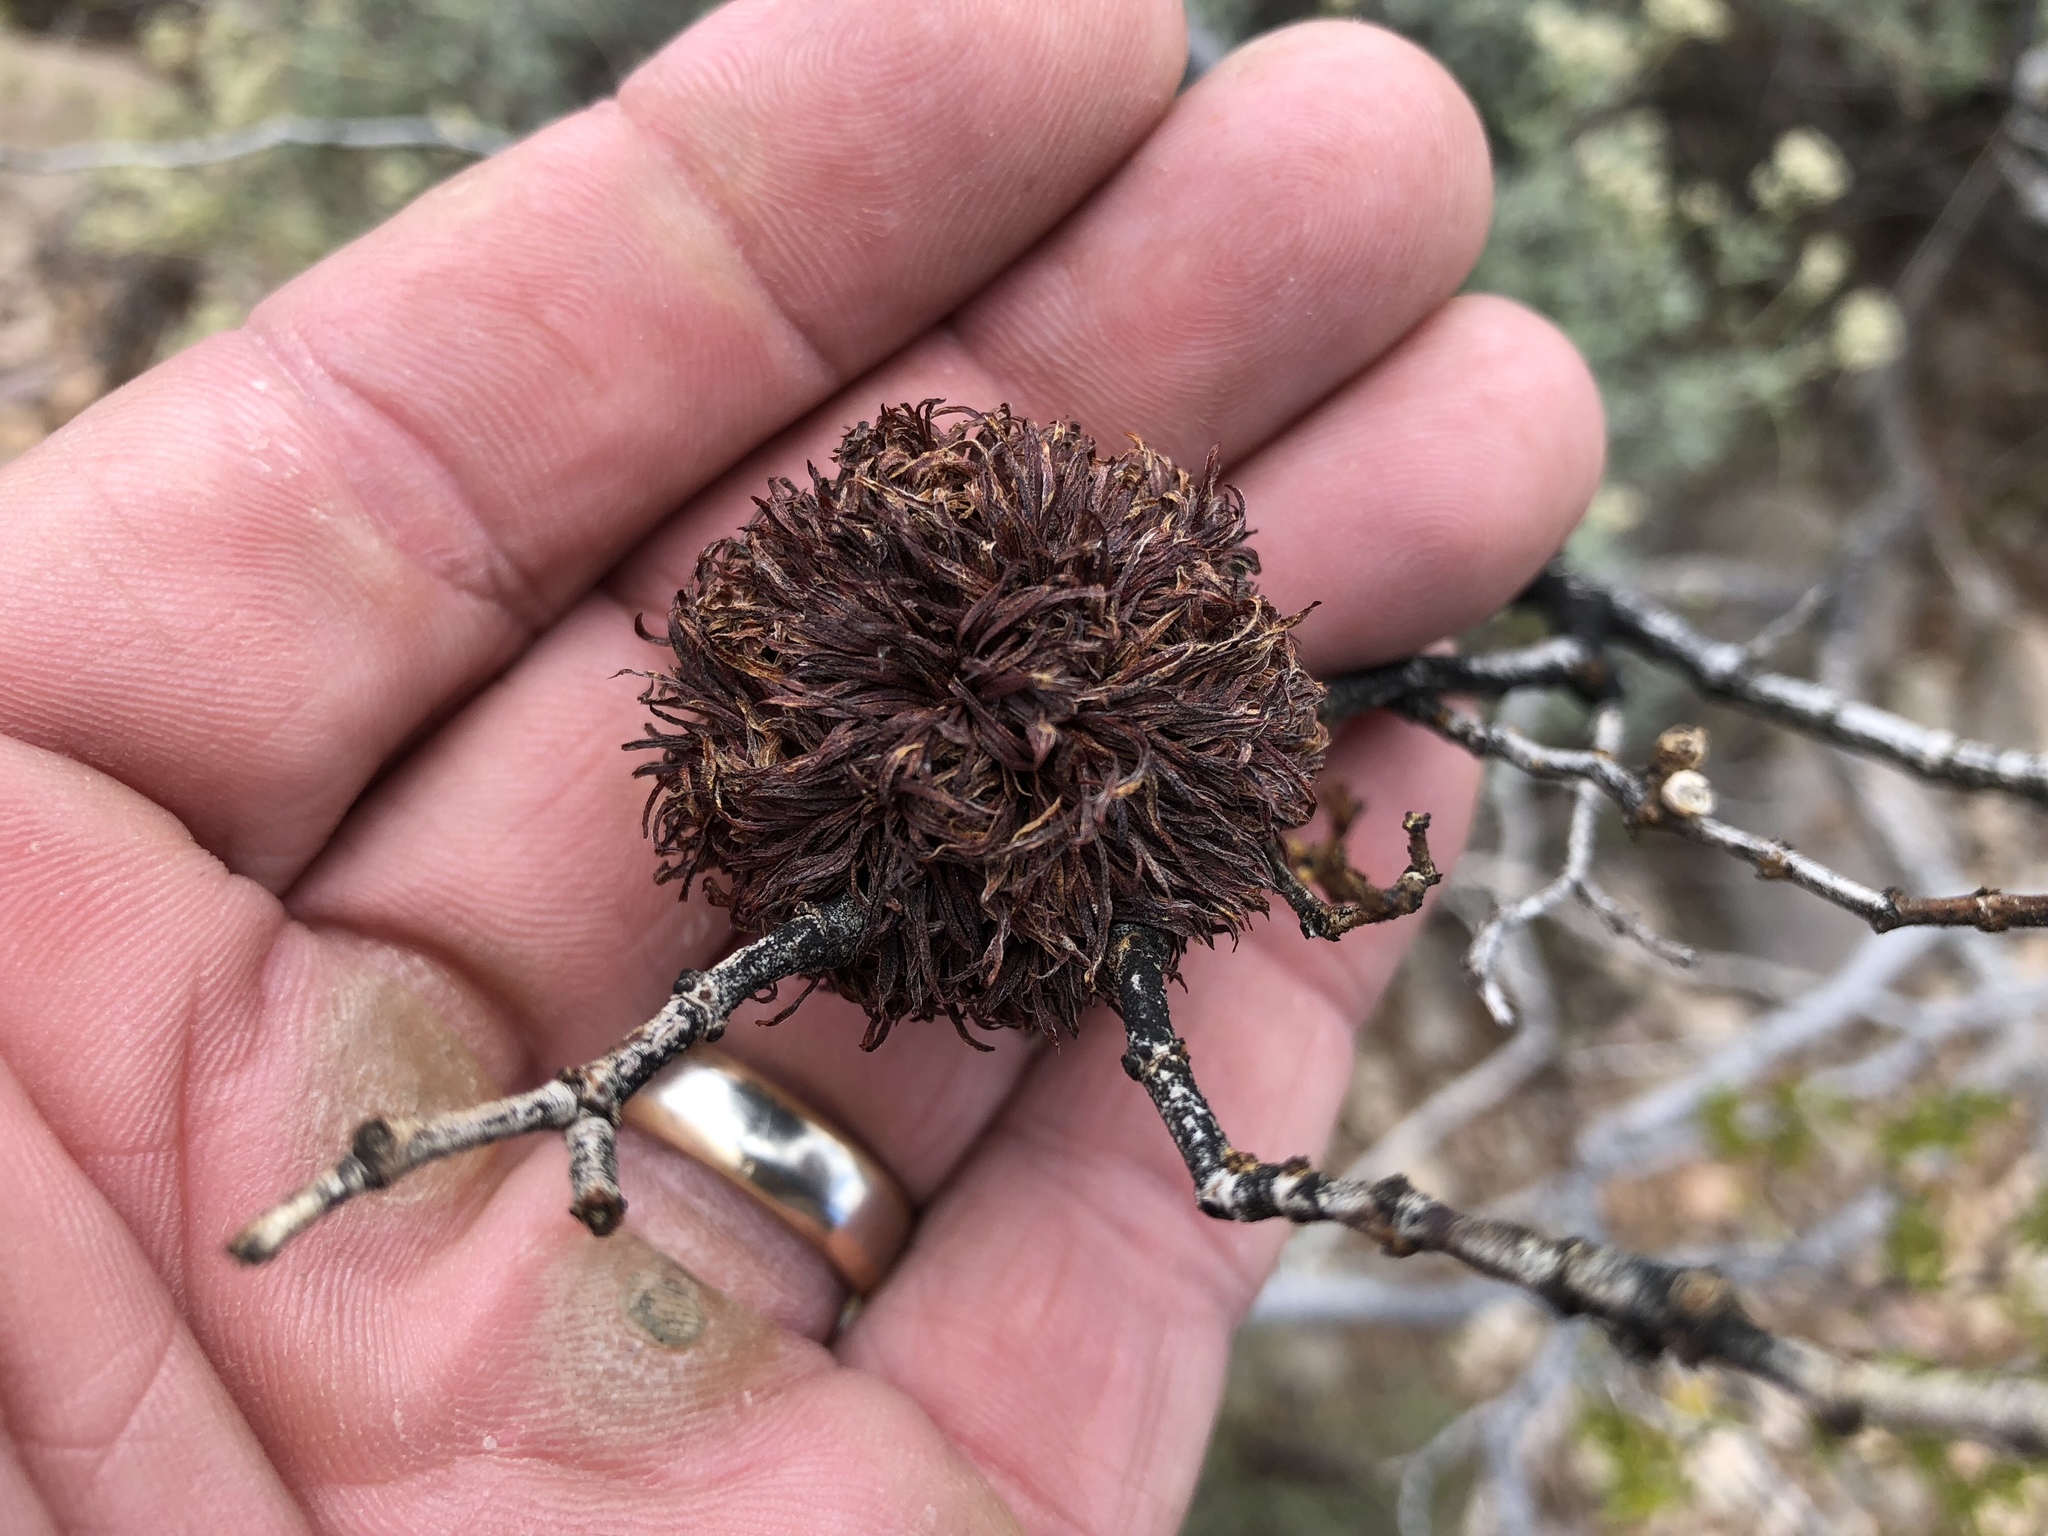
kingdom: Animalia
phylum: Arthropoda
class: Insecta
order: Diptera
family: Cecidomyiidae
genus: Asphondylia
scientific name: Asphondylia auripila
